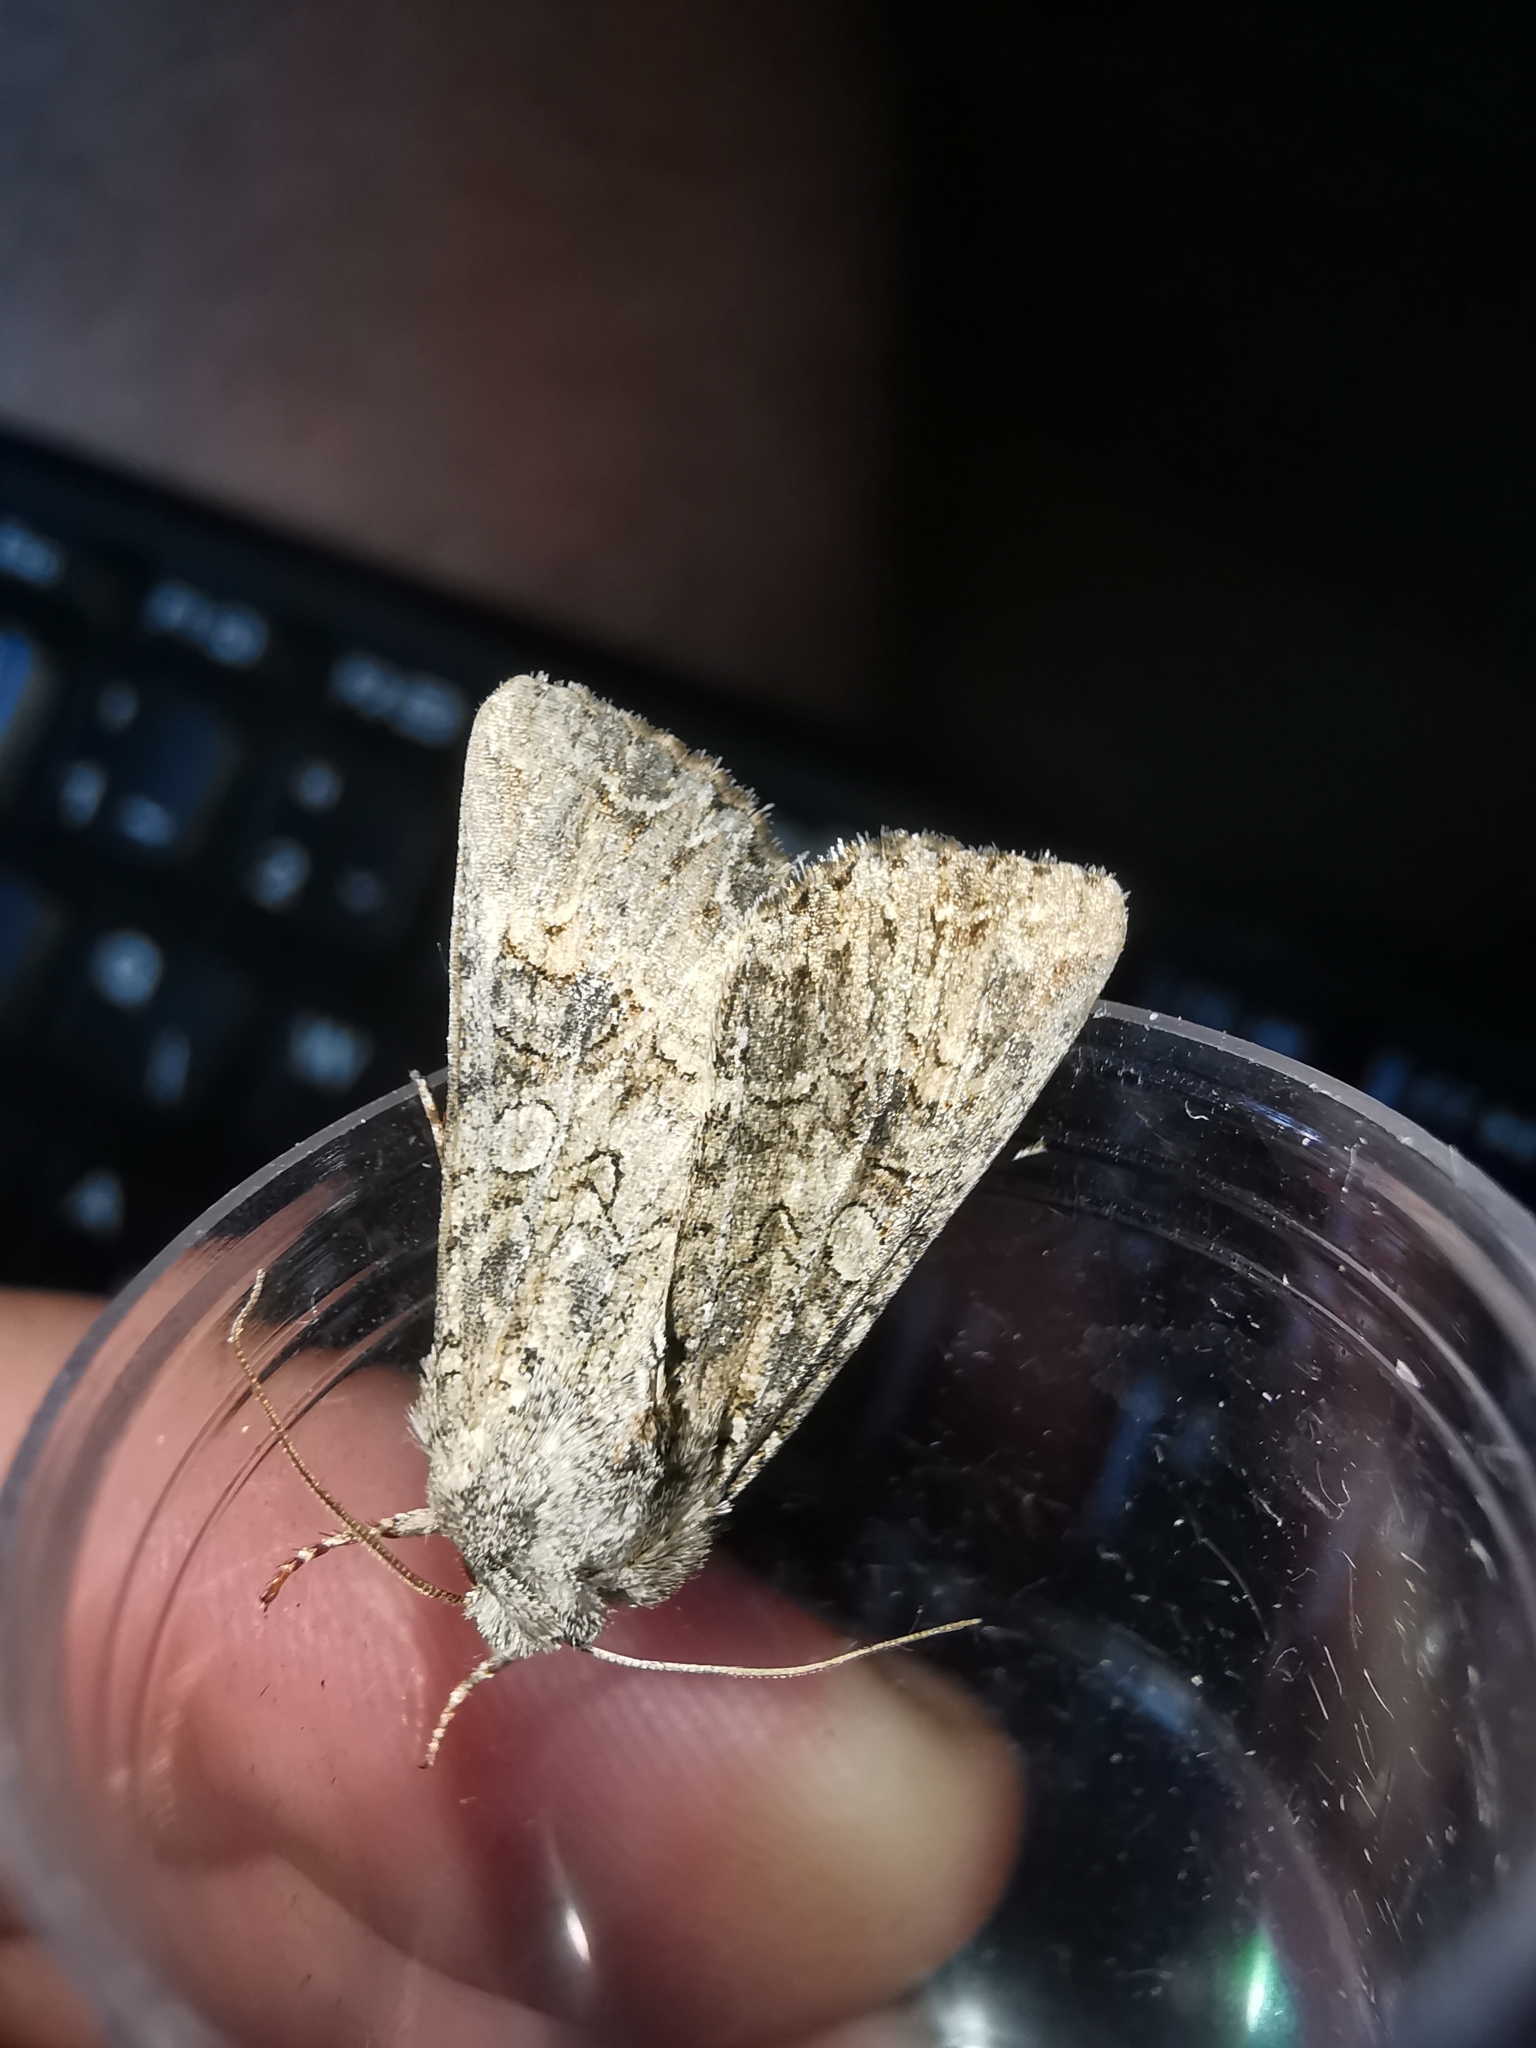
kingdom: Animalia
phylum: Arthropoda
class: Insecta
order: Lepidoptera
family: Noctuidae
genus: Anarta
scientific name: Anarta trifolii
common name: Clover cutworm moth
